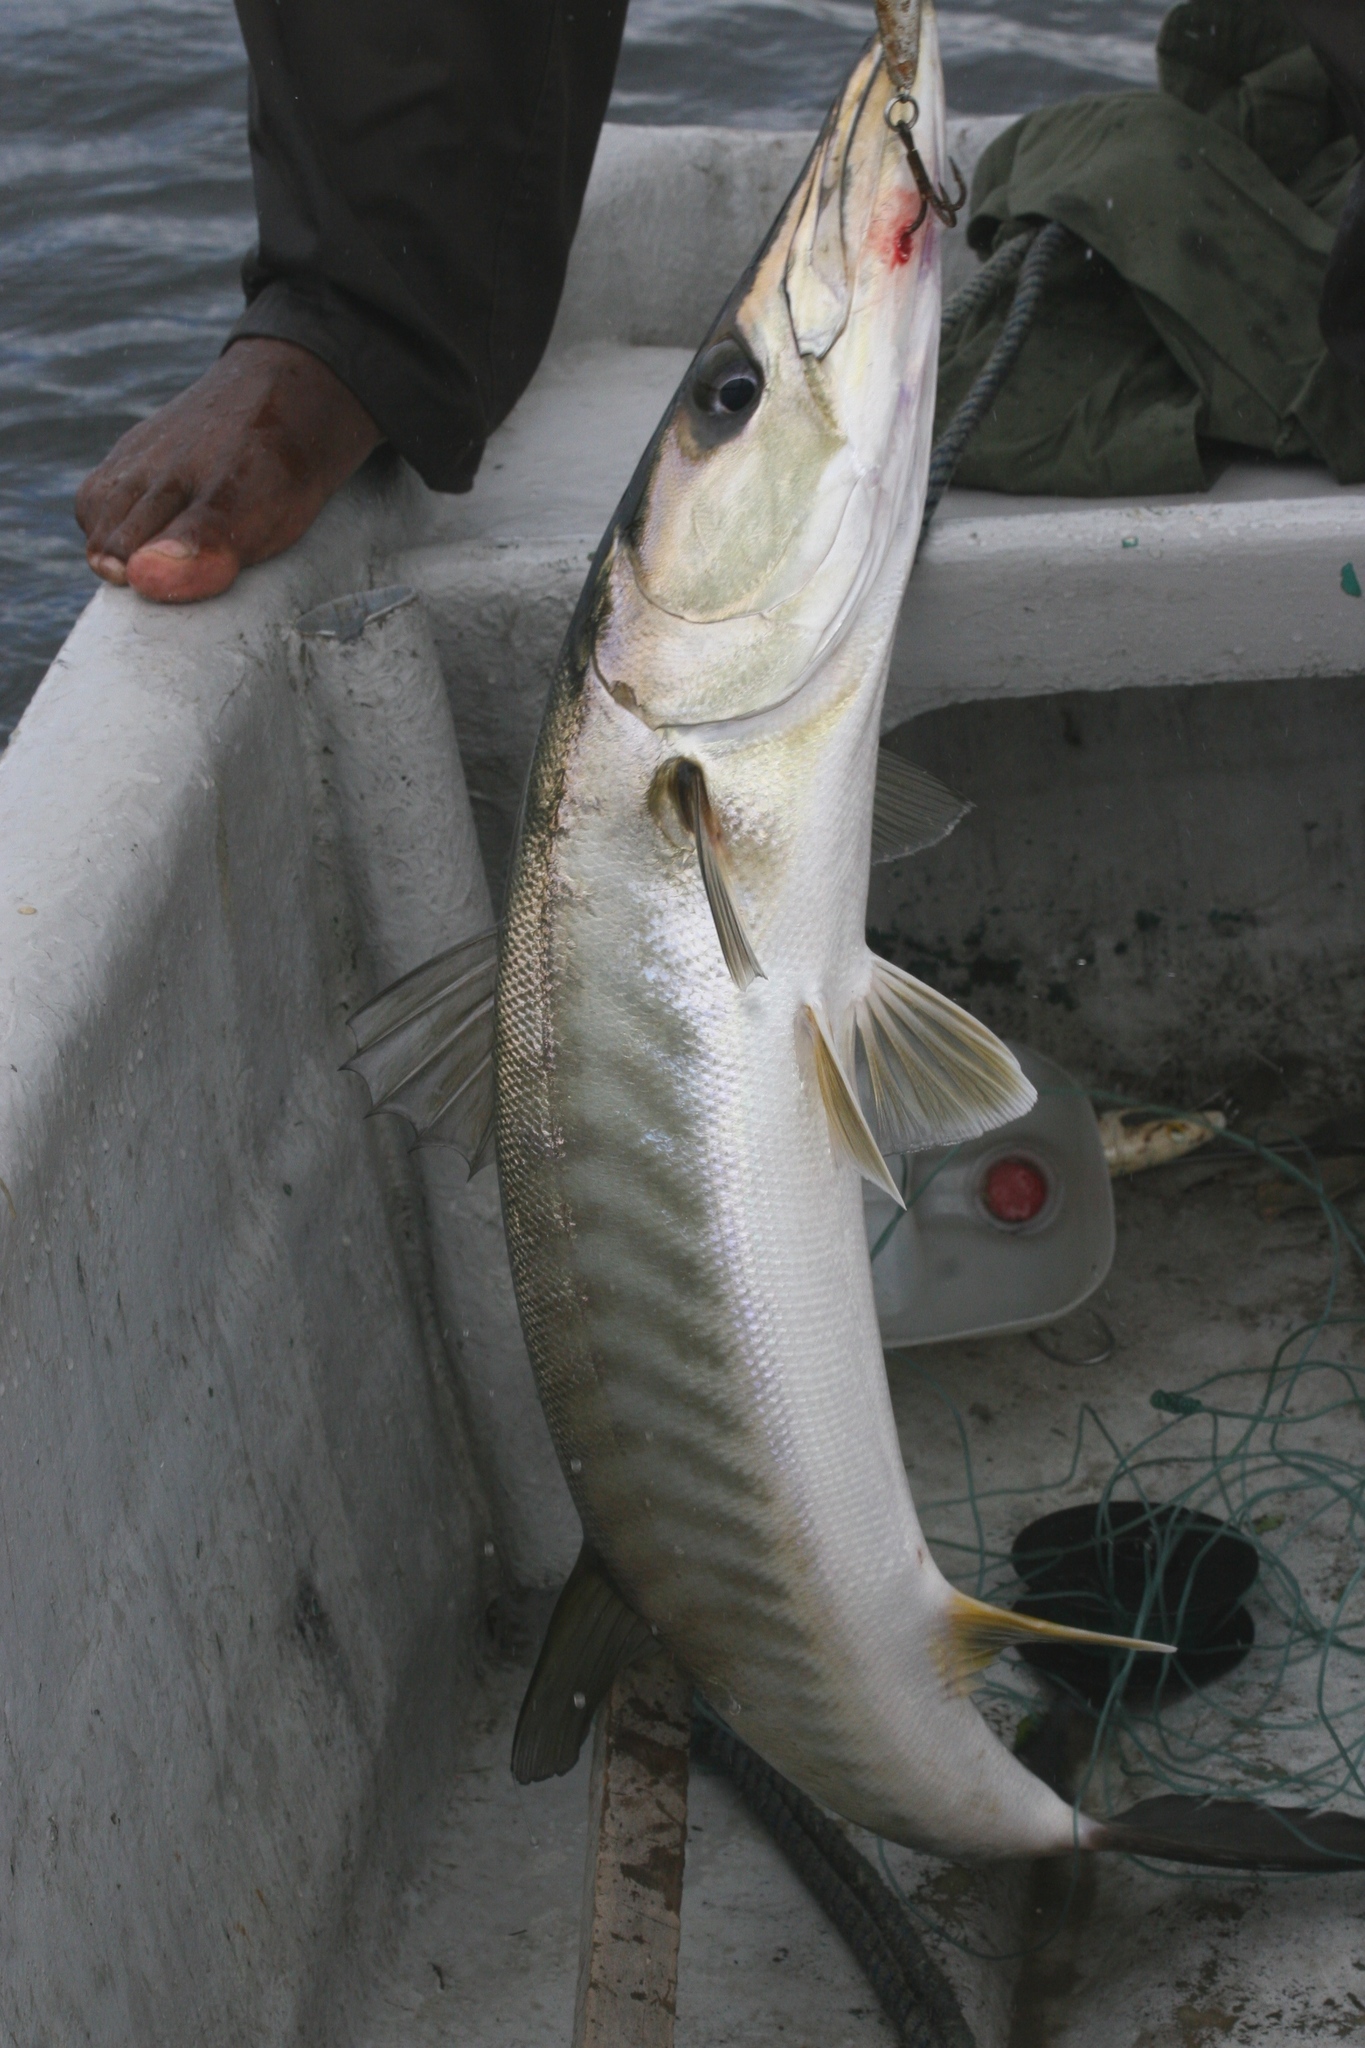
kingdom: Animalia
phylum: Chordata
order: Perciformes
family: Sphyraenidae
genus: Sphyraena
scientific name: Sphyraena afra
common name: Guinean barracuda
